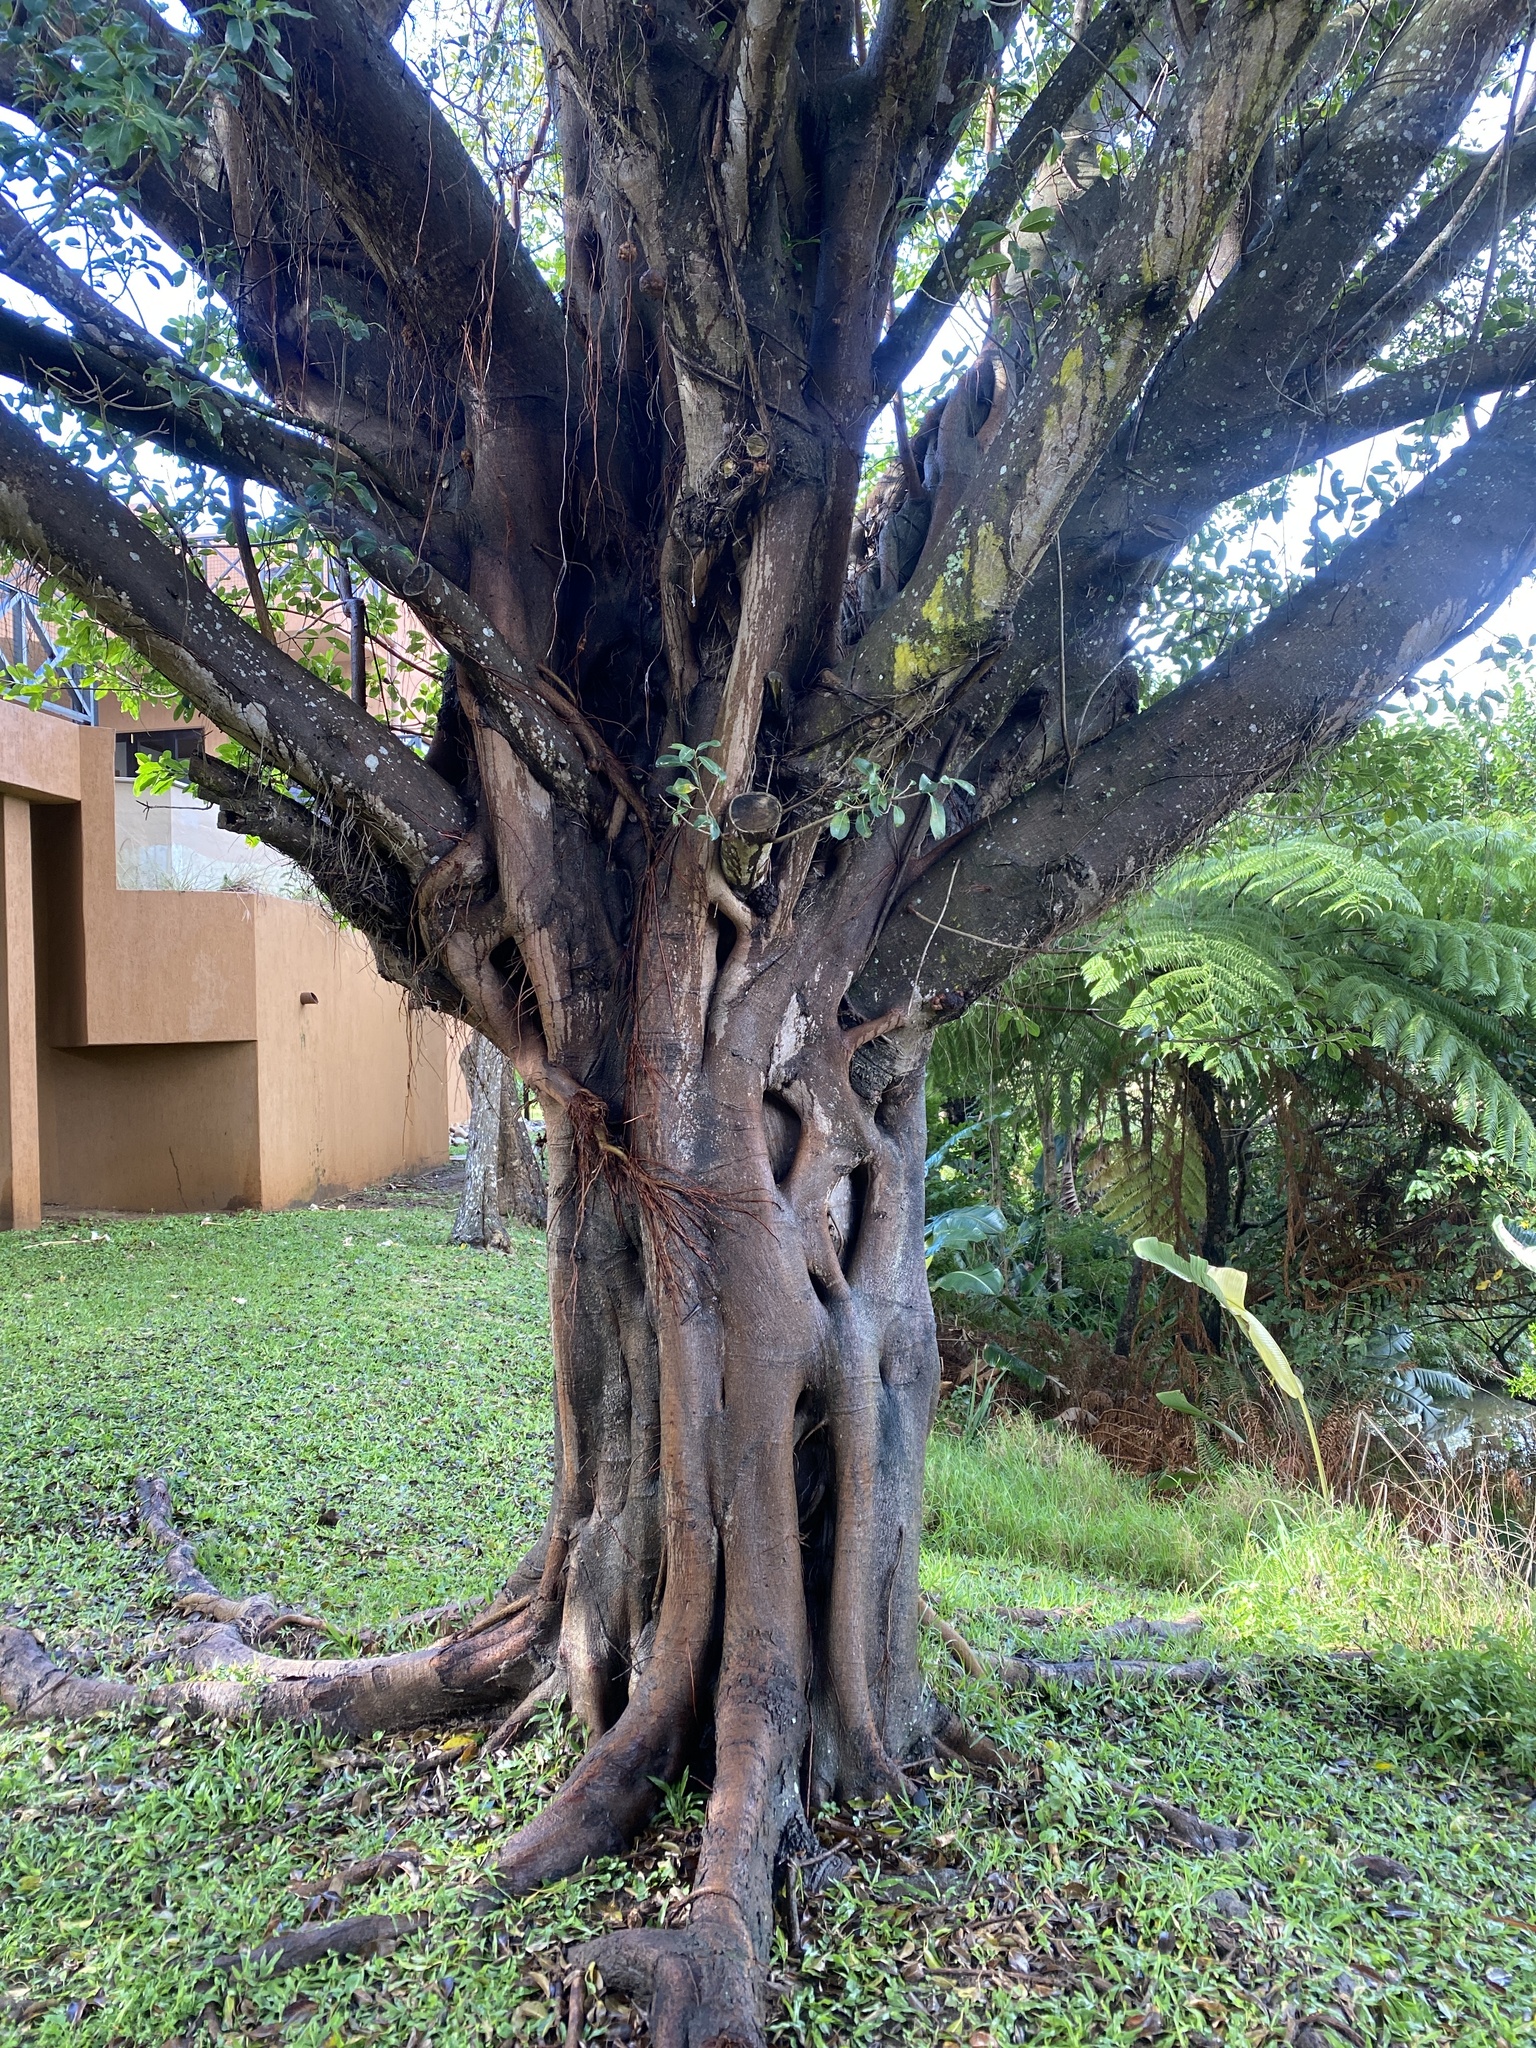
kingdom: Plantae
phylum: Tracheophyta
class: Magnoliopsida
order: Rosales
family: Moraceae
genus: Ficus
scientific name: Ficus thonningii
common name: Fig
